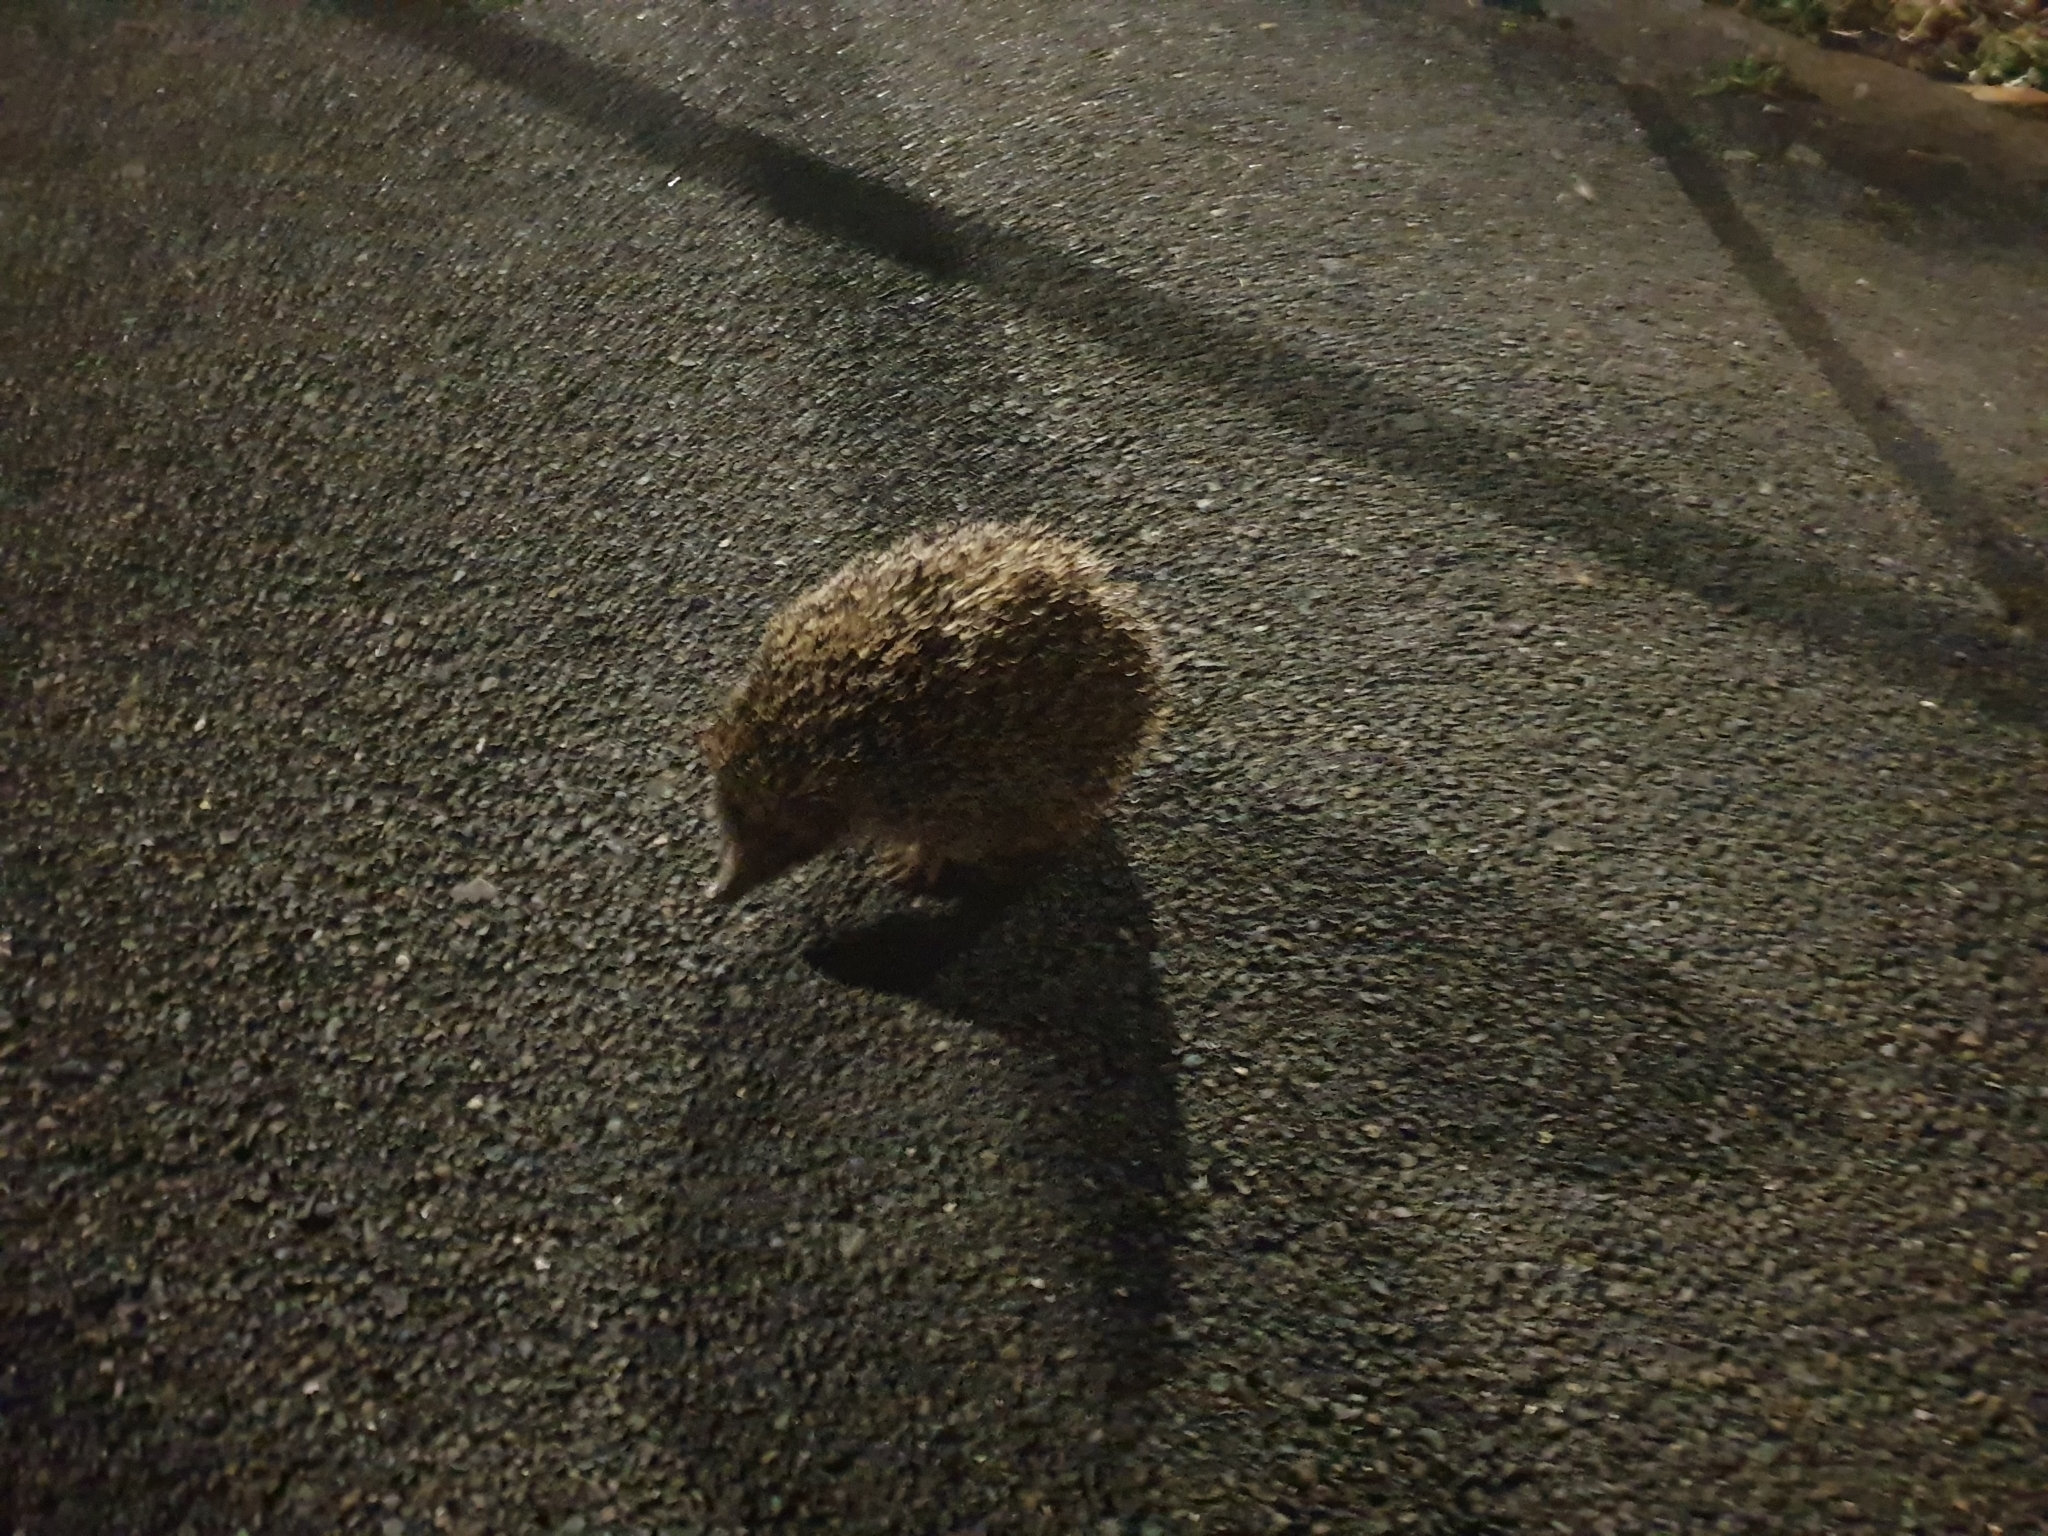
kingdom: Animalia
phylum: Chordata
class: Mammalia
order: Erinaceomorpha
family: Erinaceidae
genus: Erinaceus
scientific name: Erinaceus europaeus
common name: West european hedgehog
